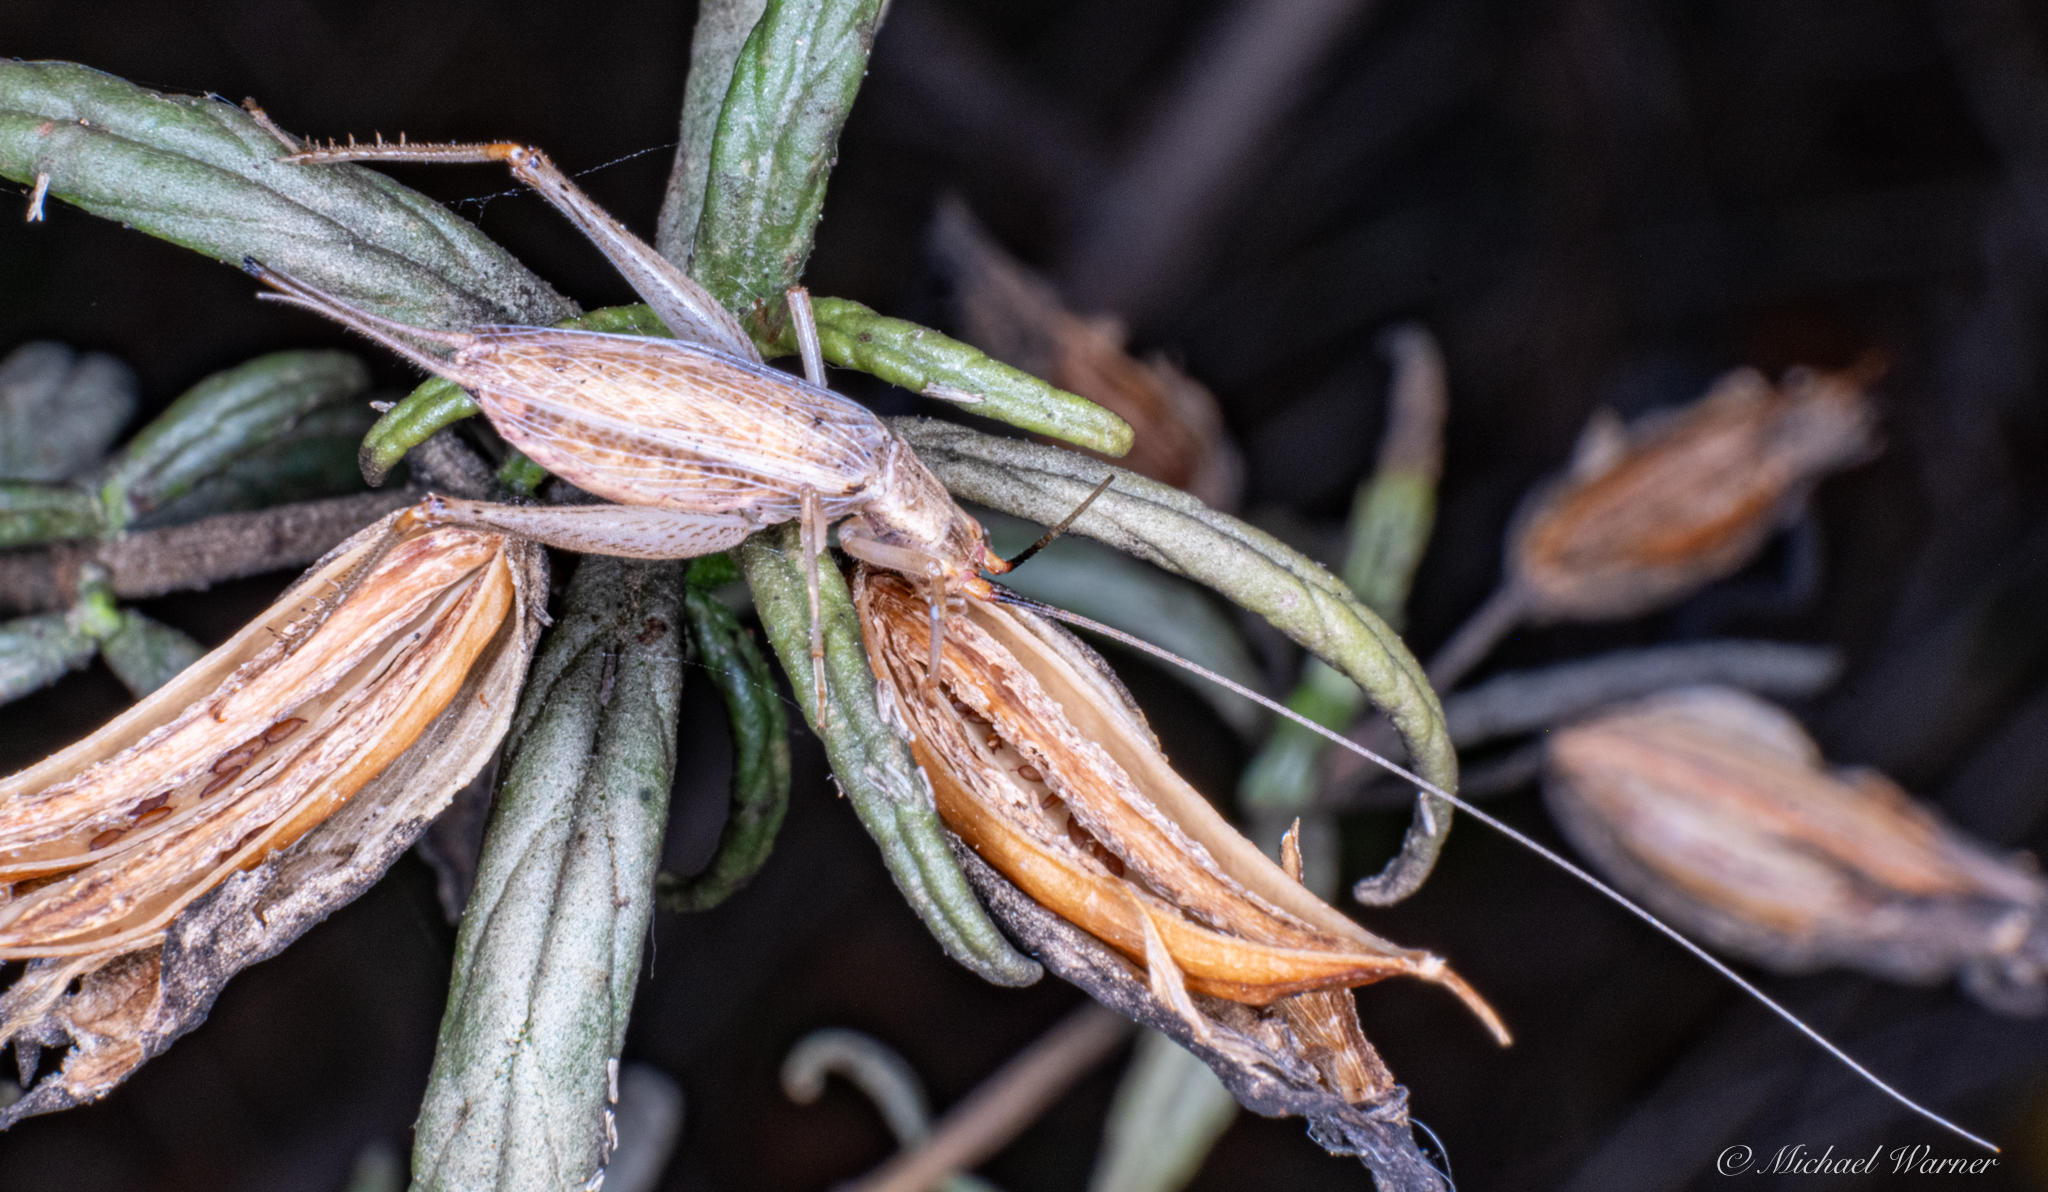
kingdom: Animalia
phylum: Arthropoda
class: Insecta
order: Orthoptera
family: Gryllidae
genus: Oecanthus
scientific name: Oecanthus californicus
